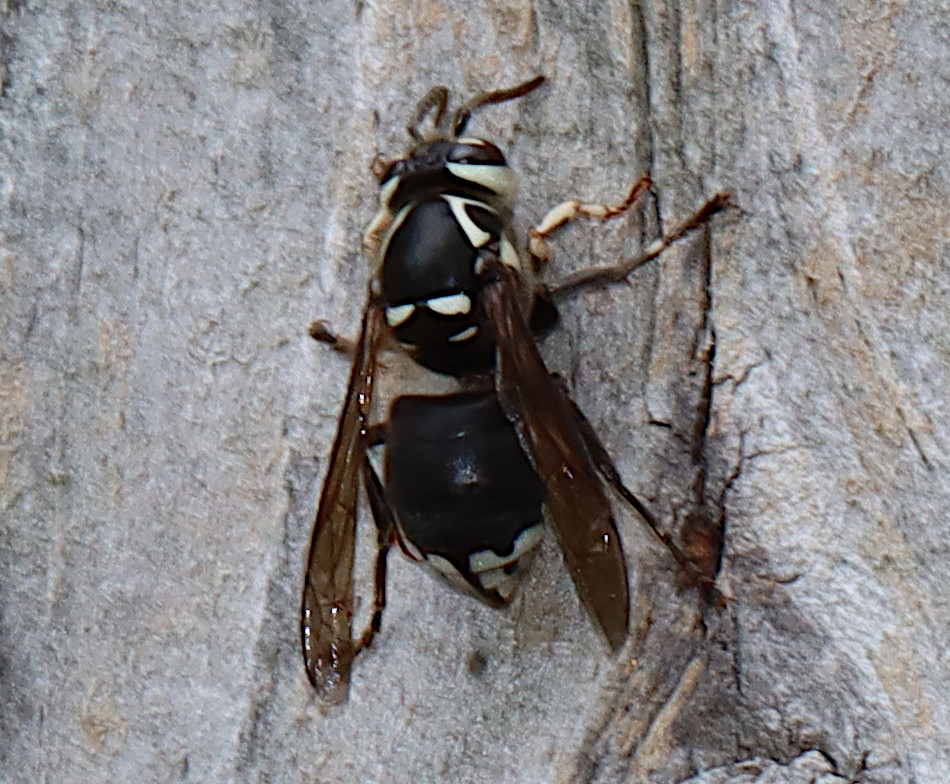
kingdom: Animalia
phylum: Arthropoda
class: Insecta
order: Hymenoptera
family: Vespidae
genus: Dolichovespula
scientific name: Dolichovespula maculata
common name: Bald-faced hornet
